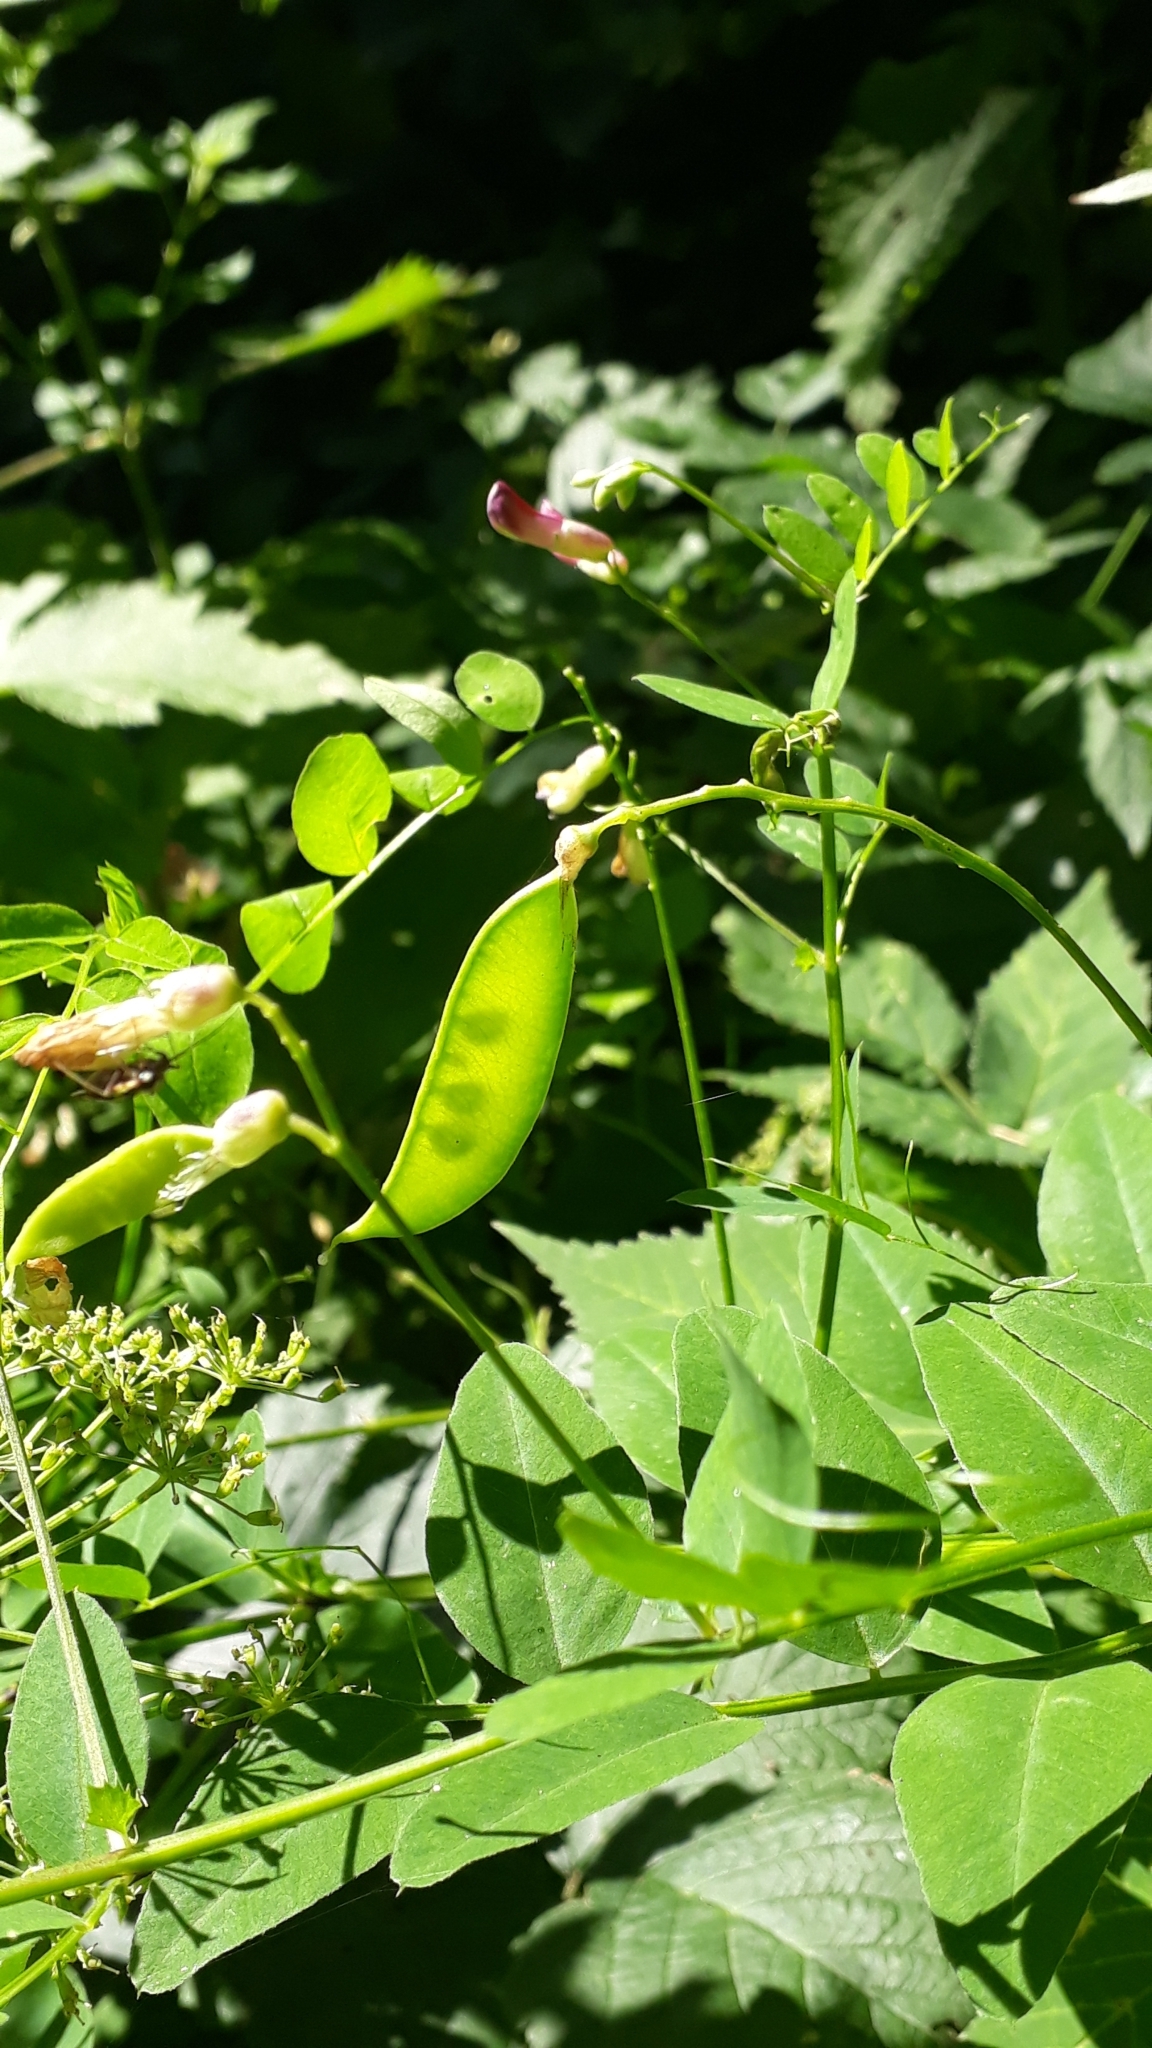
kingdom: Plantae
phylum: Tracheophyta
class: Magnoliopsida
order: Fabales
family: Fabaceae
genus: Vicia
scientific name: Vicia dumetorum
